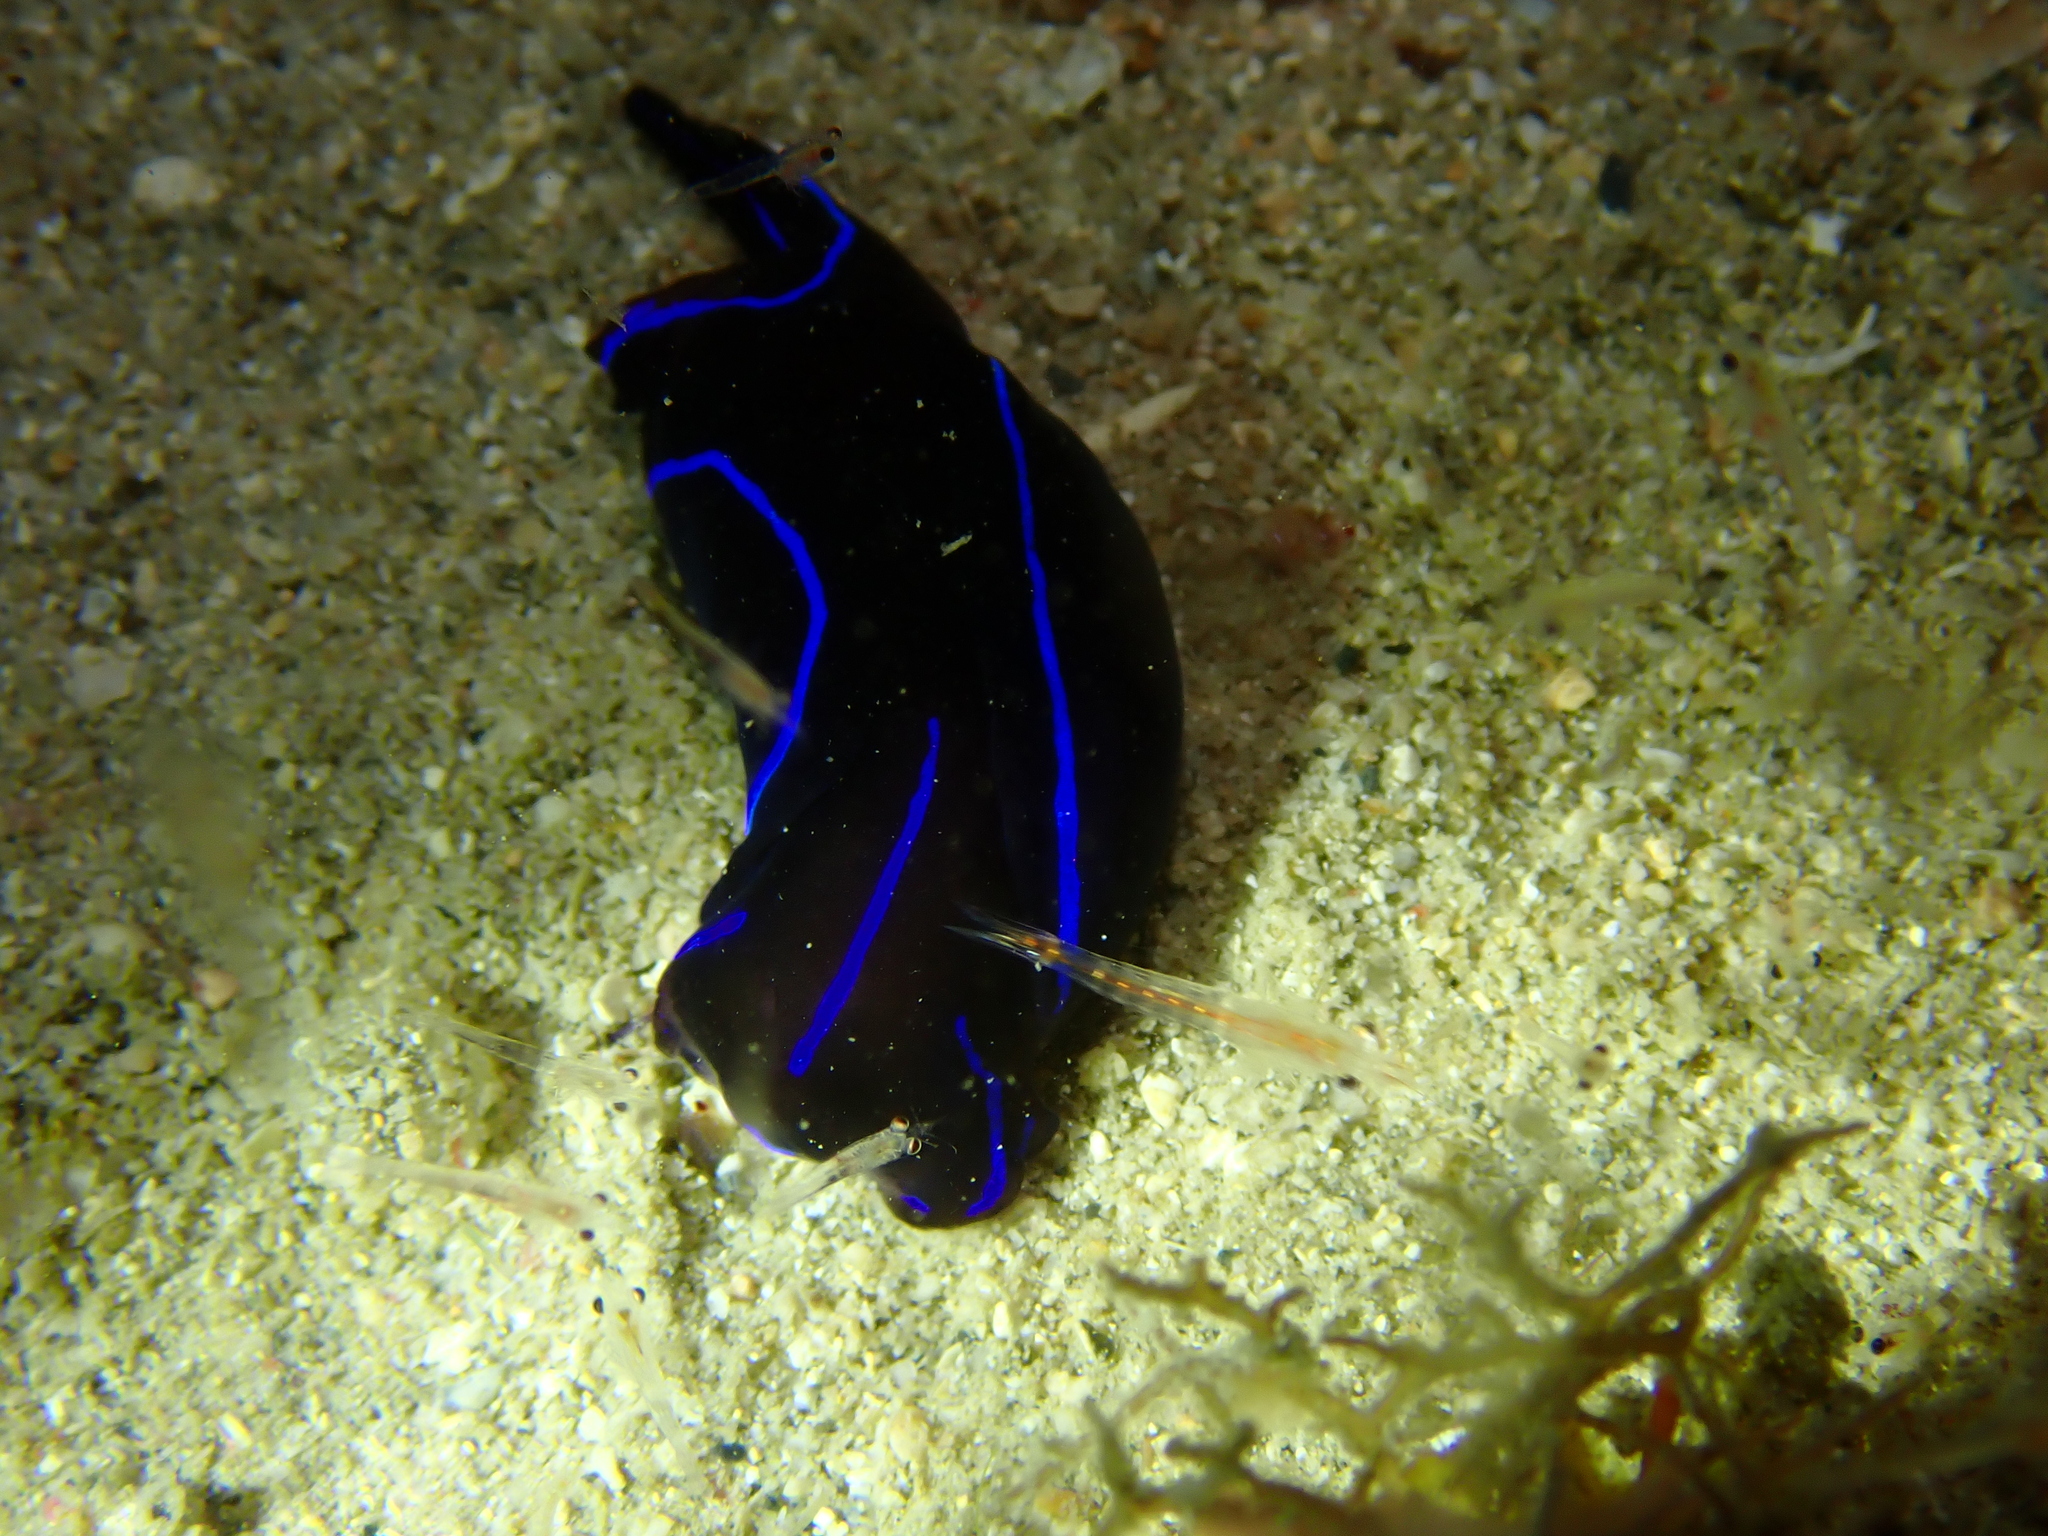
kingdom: Animalia
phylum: Mollusca
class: Gastropoda
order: Cephalaspidea
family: Aglajidae
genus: Chelidonura
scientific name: Chelidonura varians
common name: Blue velvet headshield slug
